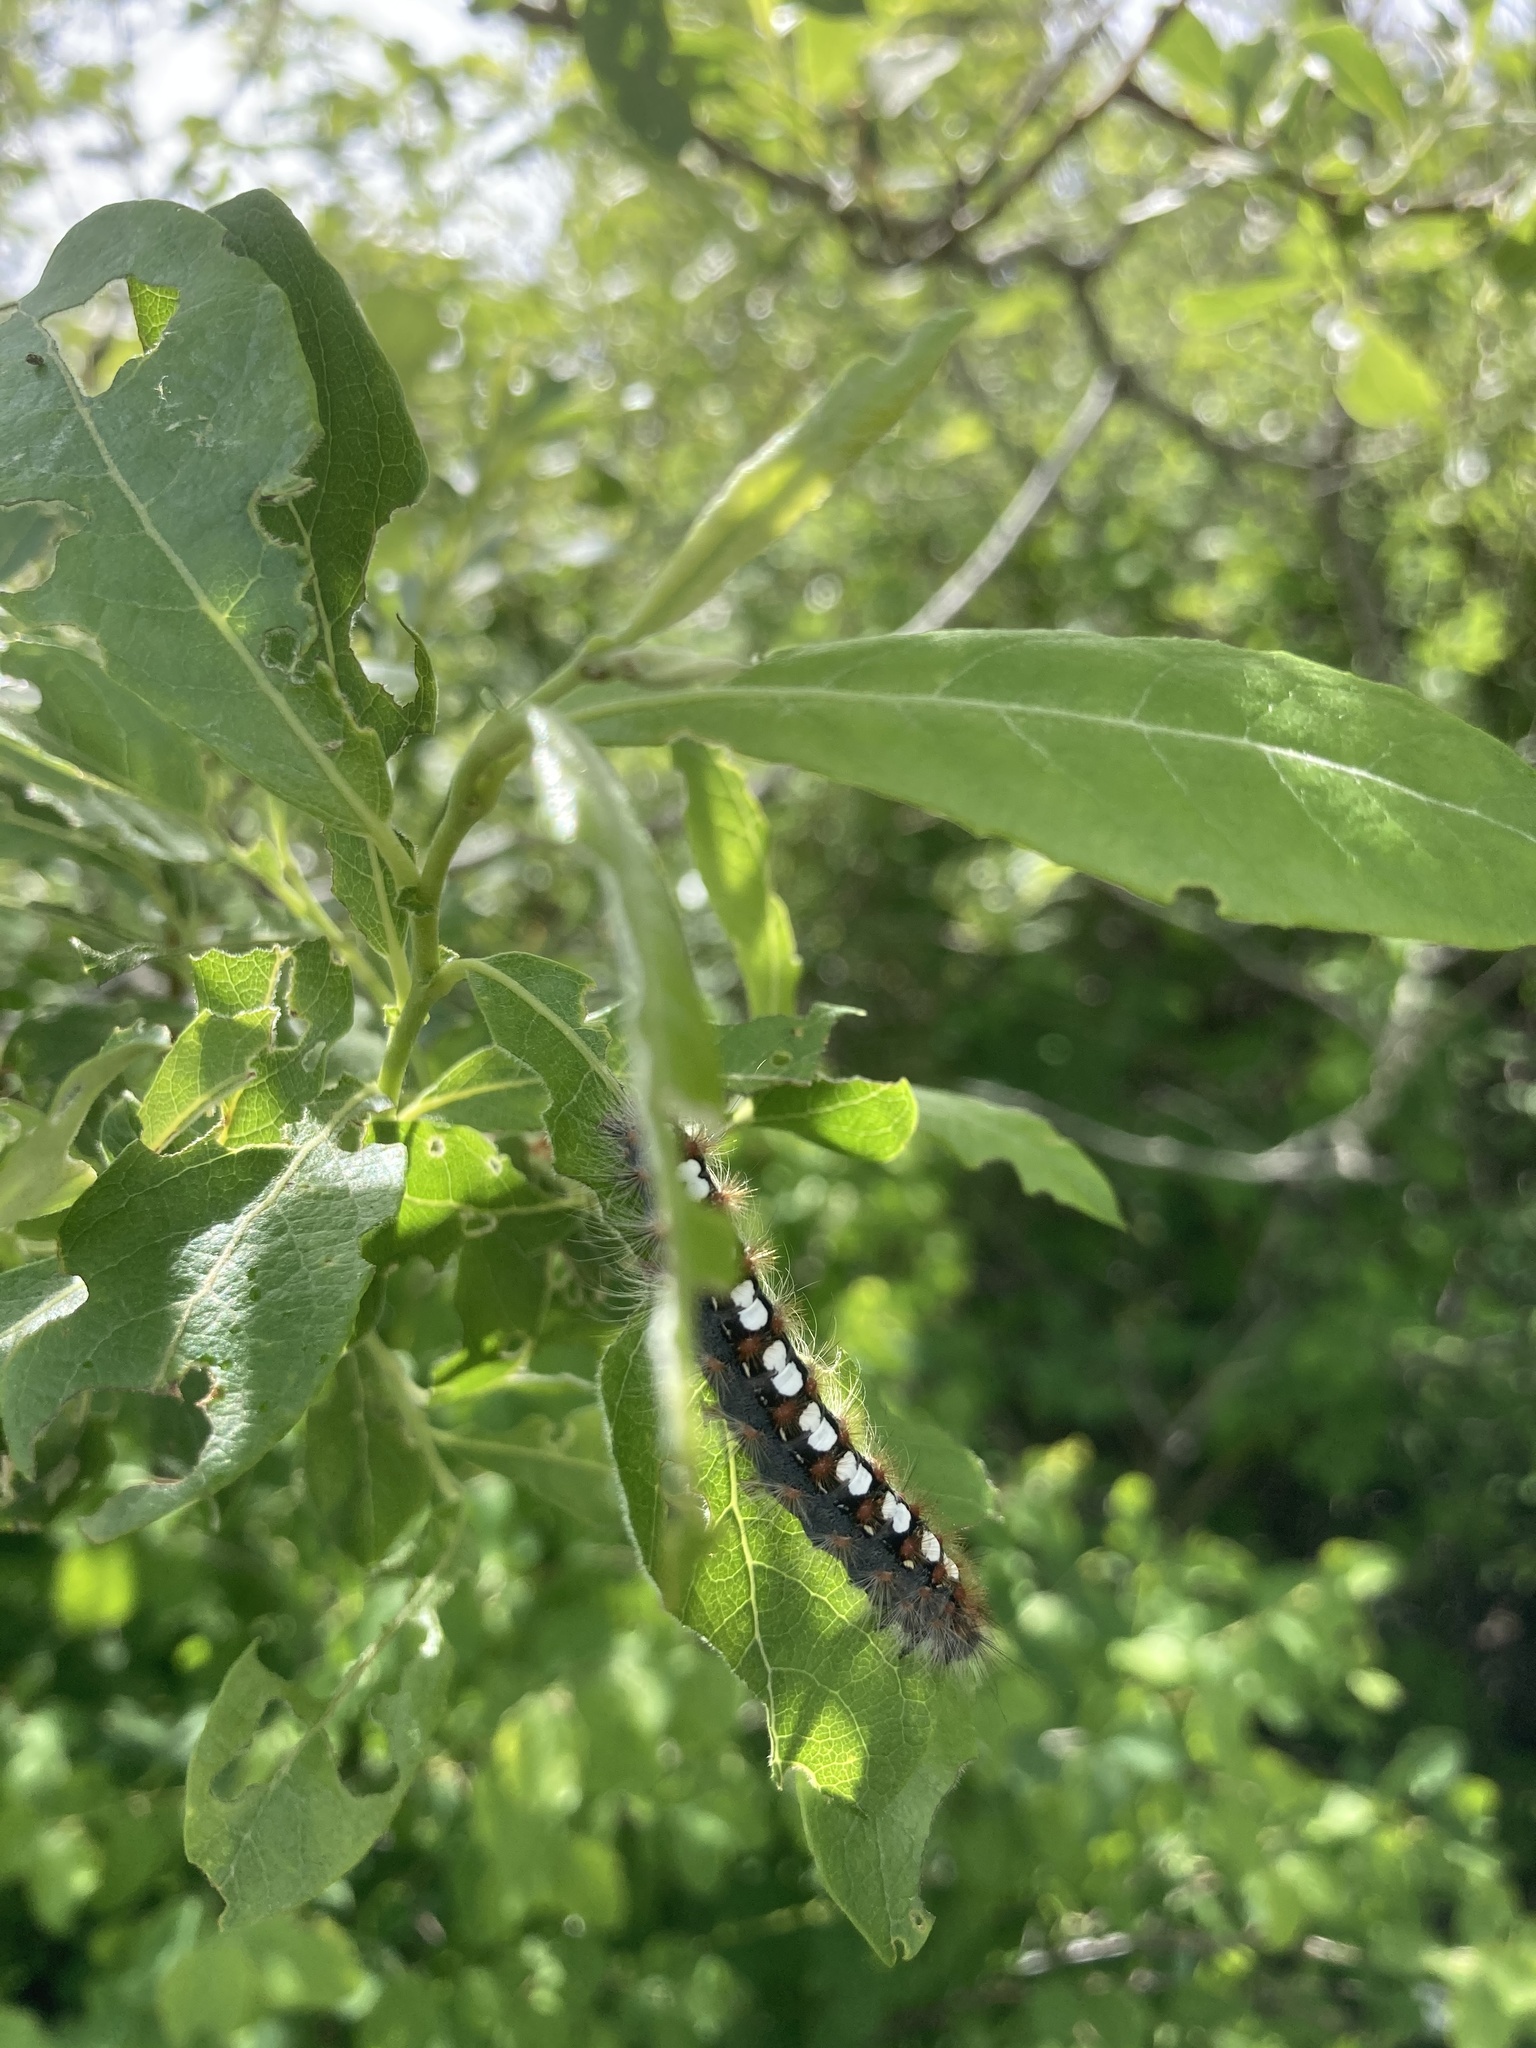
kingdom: Animalia
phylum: Arthropoda
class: Insecta
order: Lepidoptera
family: Erebidae
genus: Leucoma
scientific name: Leucoma salicis
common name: White satin moth
